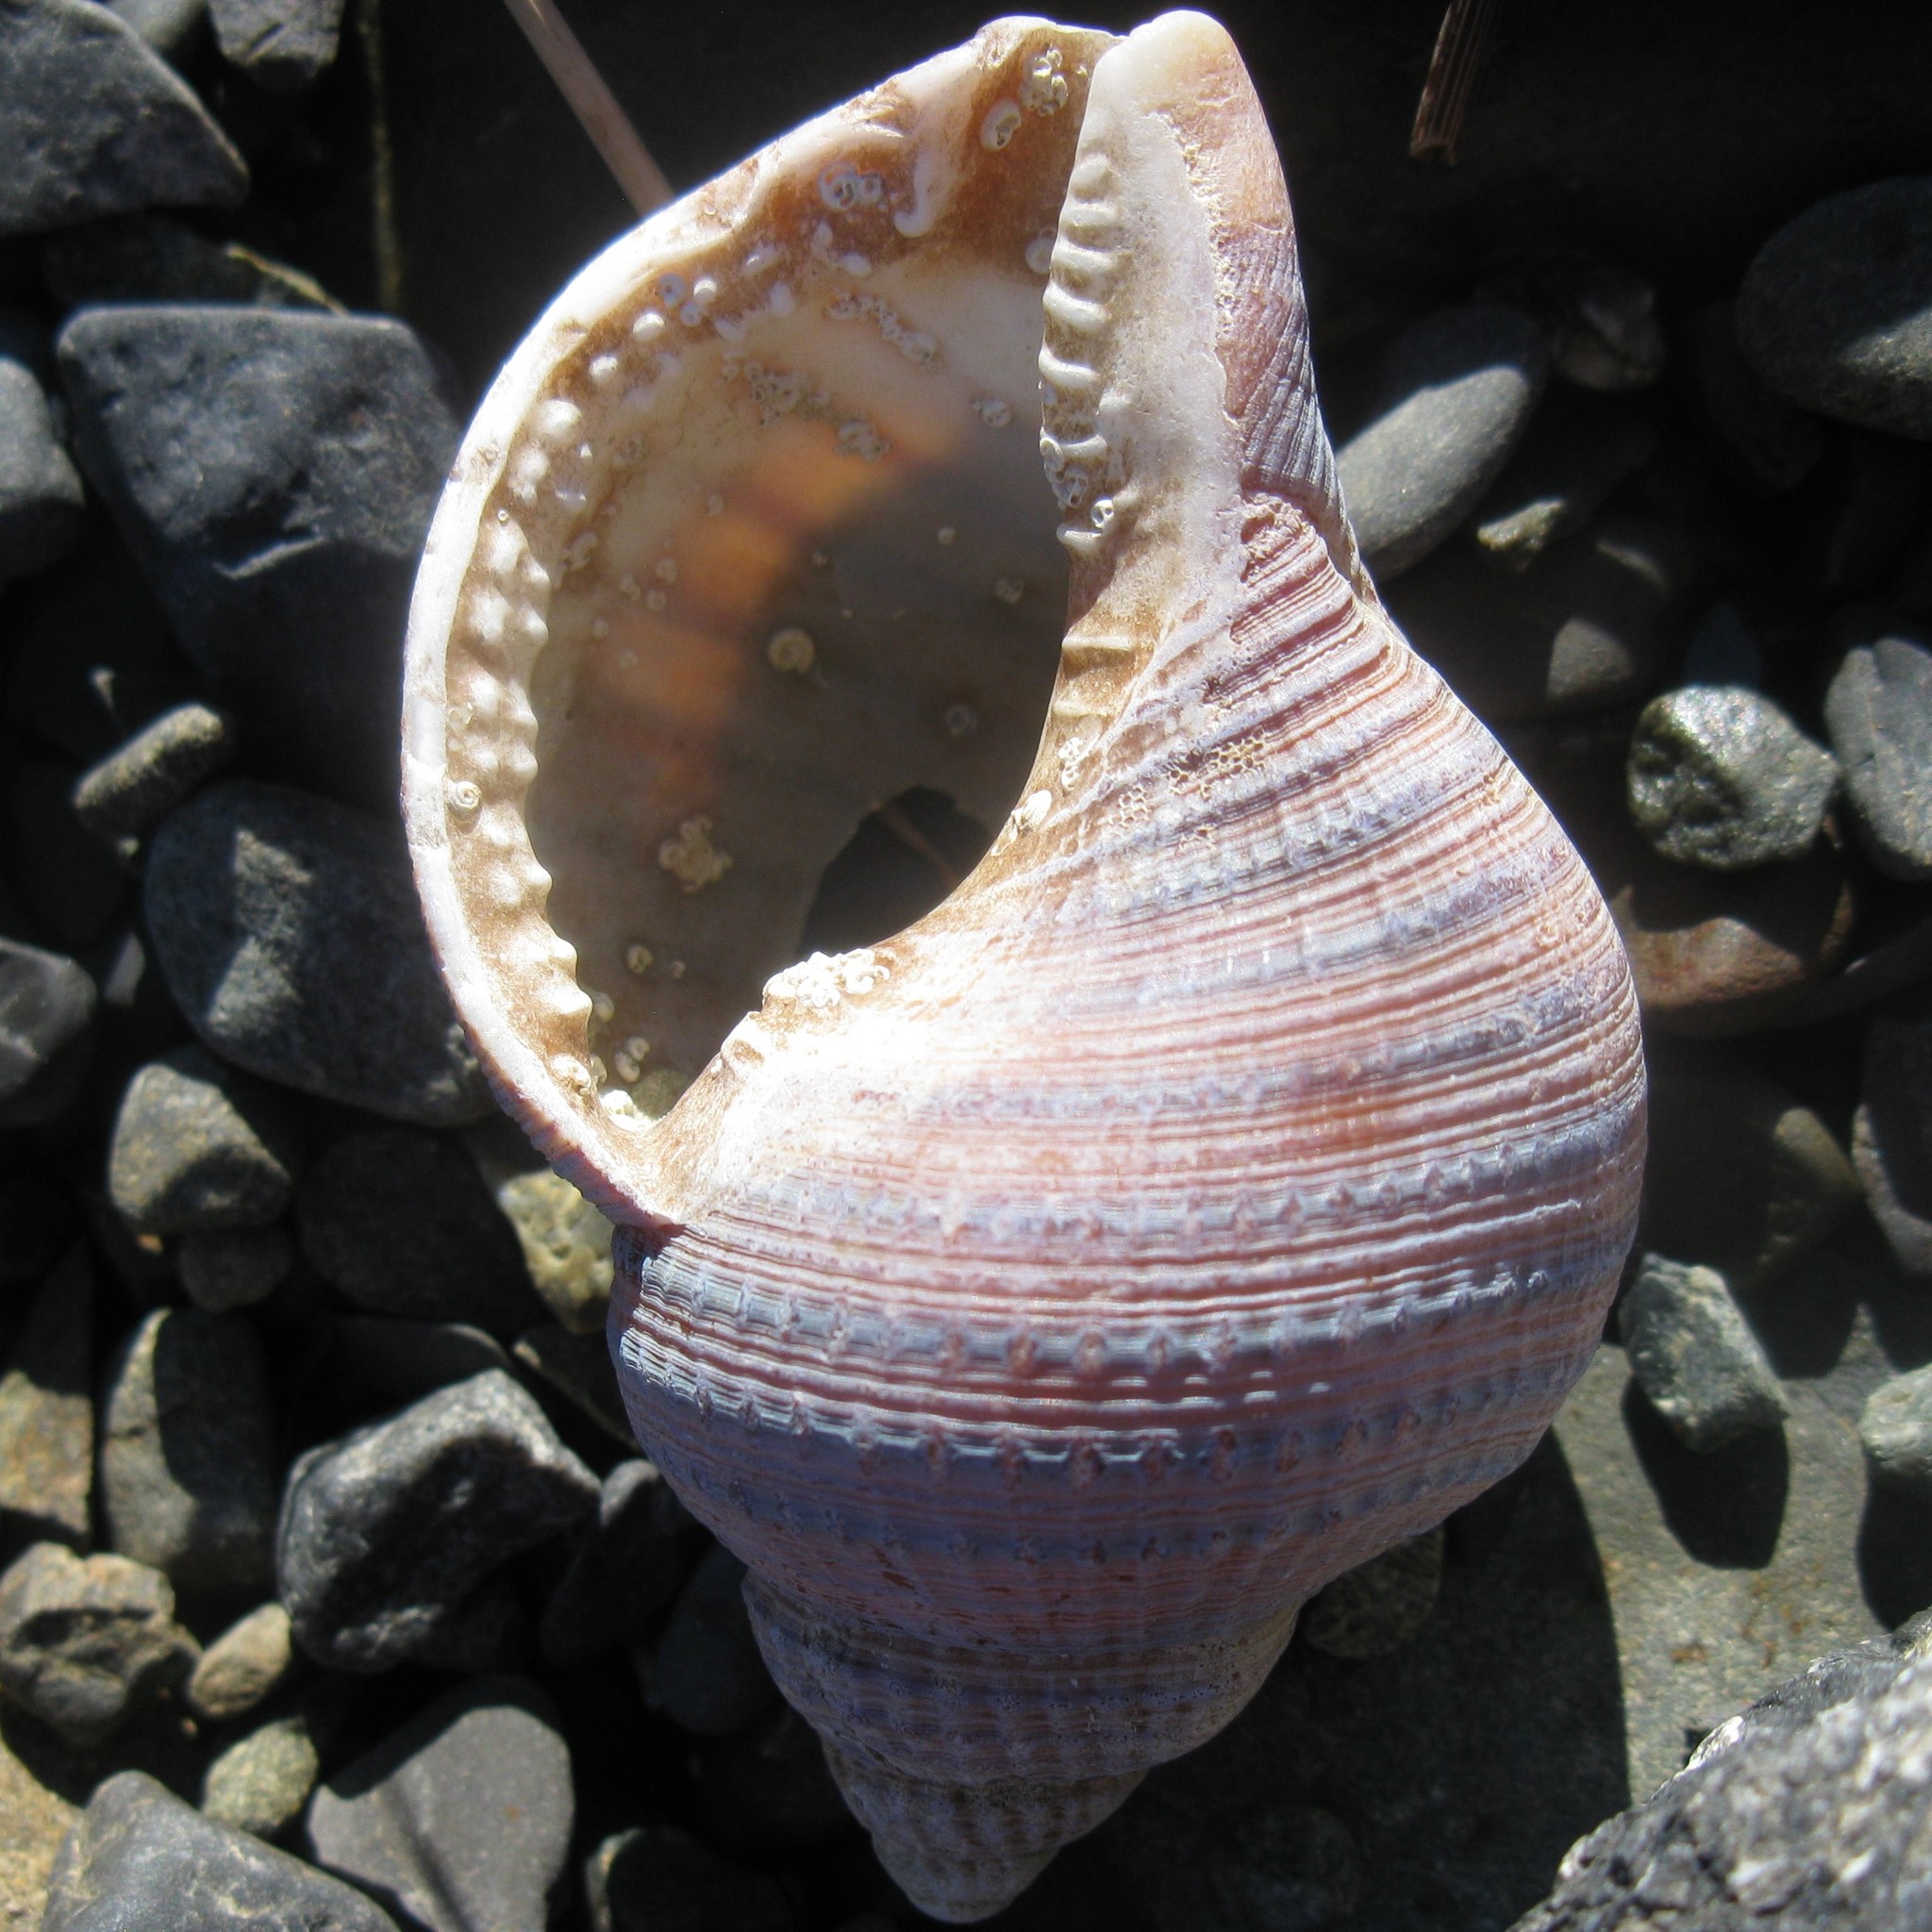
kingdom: Animalia
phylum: Mollusca
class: Gastropoda
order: Littorinimorpha
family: Cymatiidae
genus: Argobuccinum
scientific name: Argobuccinum pustulosum
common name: Pustular triton
